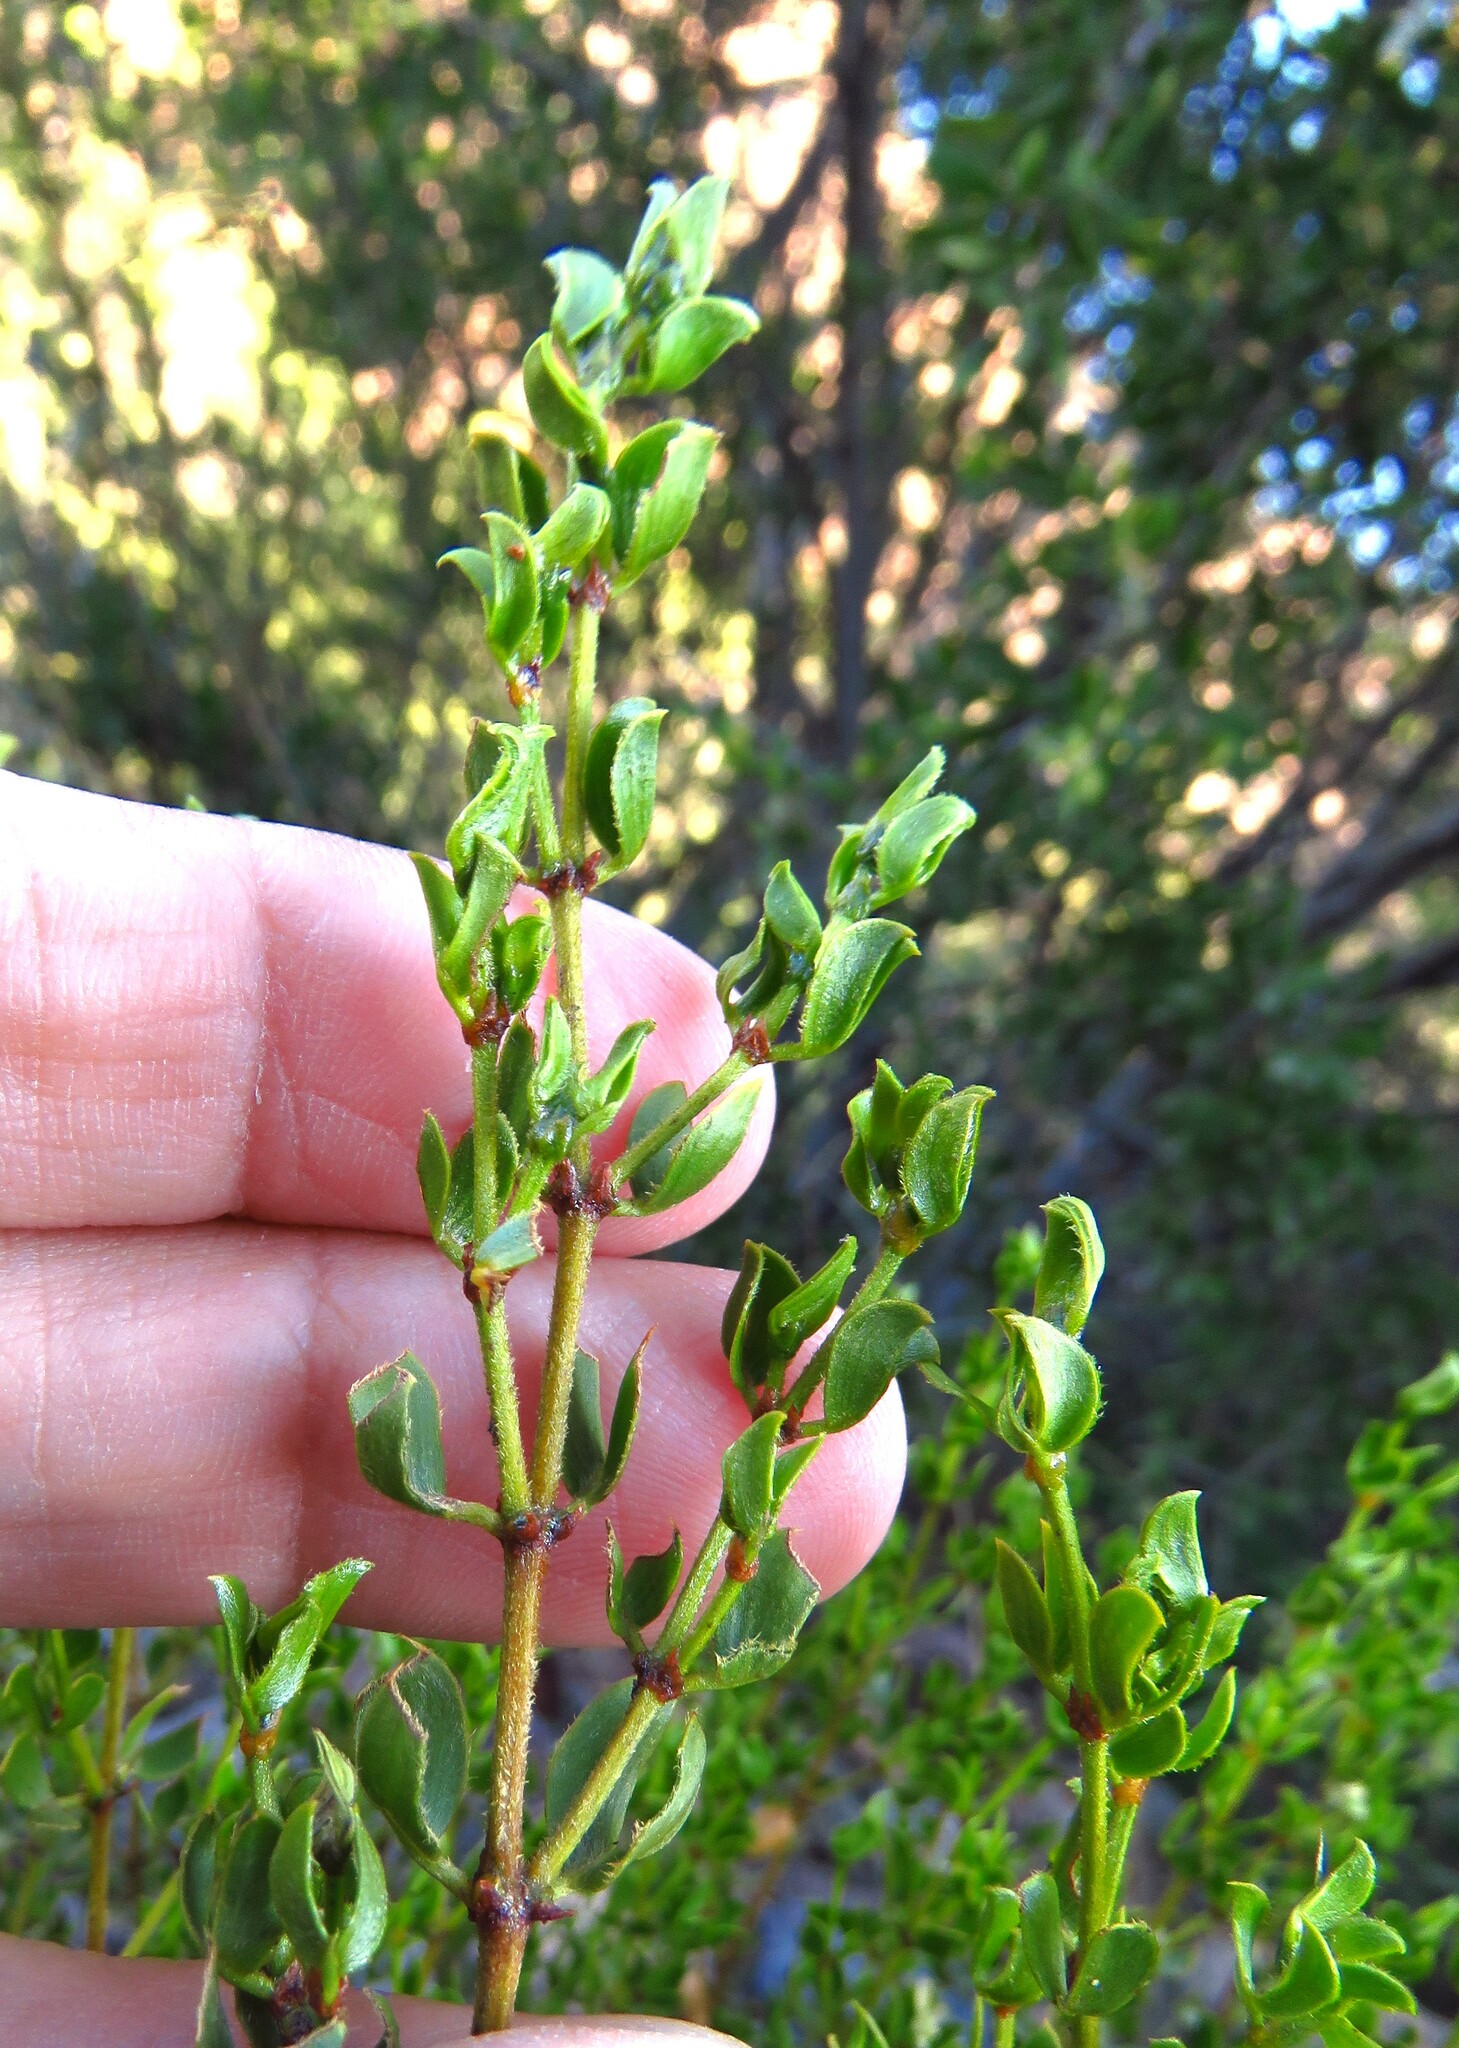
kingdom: Plantae
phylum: Tracheophyta
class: Magnoliopsida
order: Zygophyllales
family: Zygophyllaceae
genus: Larrea
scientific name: Larrea tridentata
